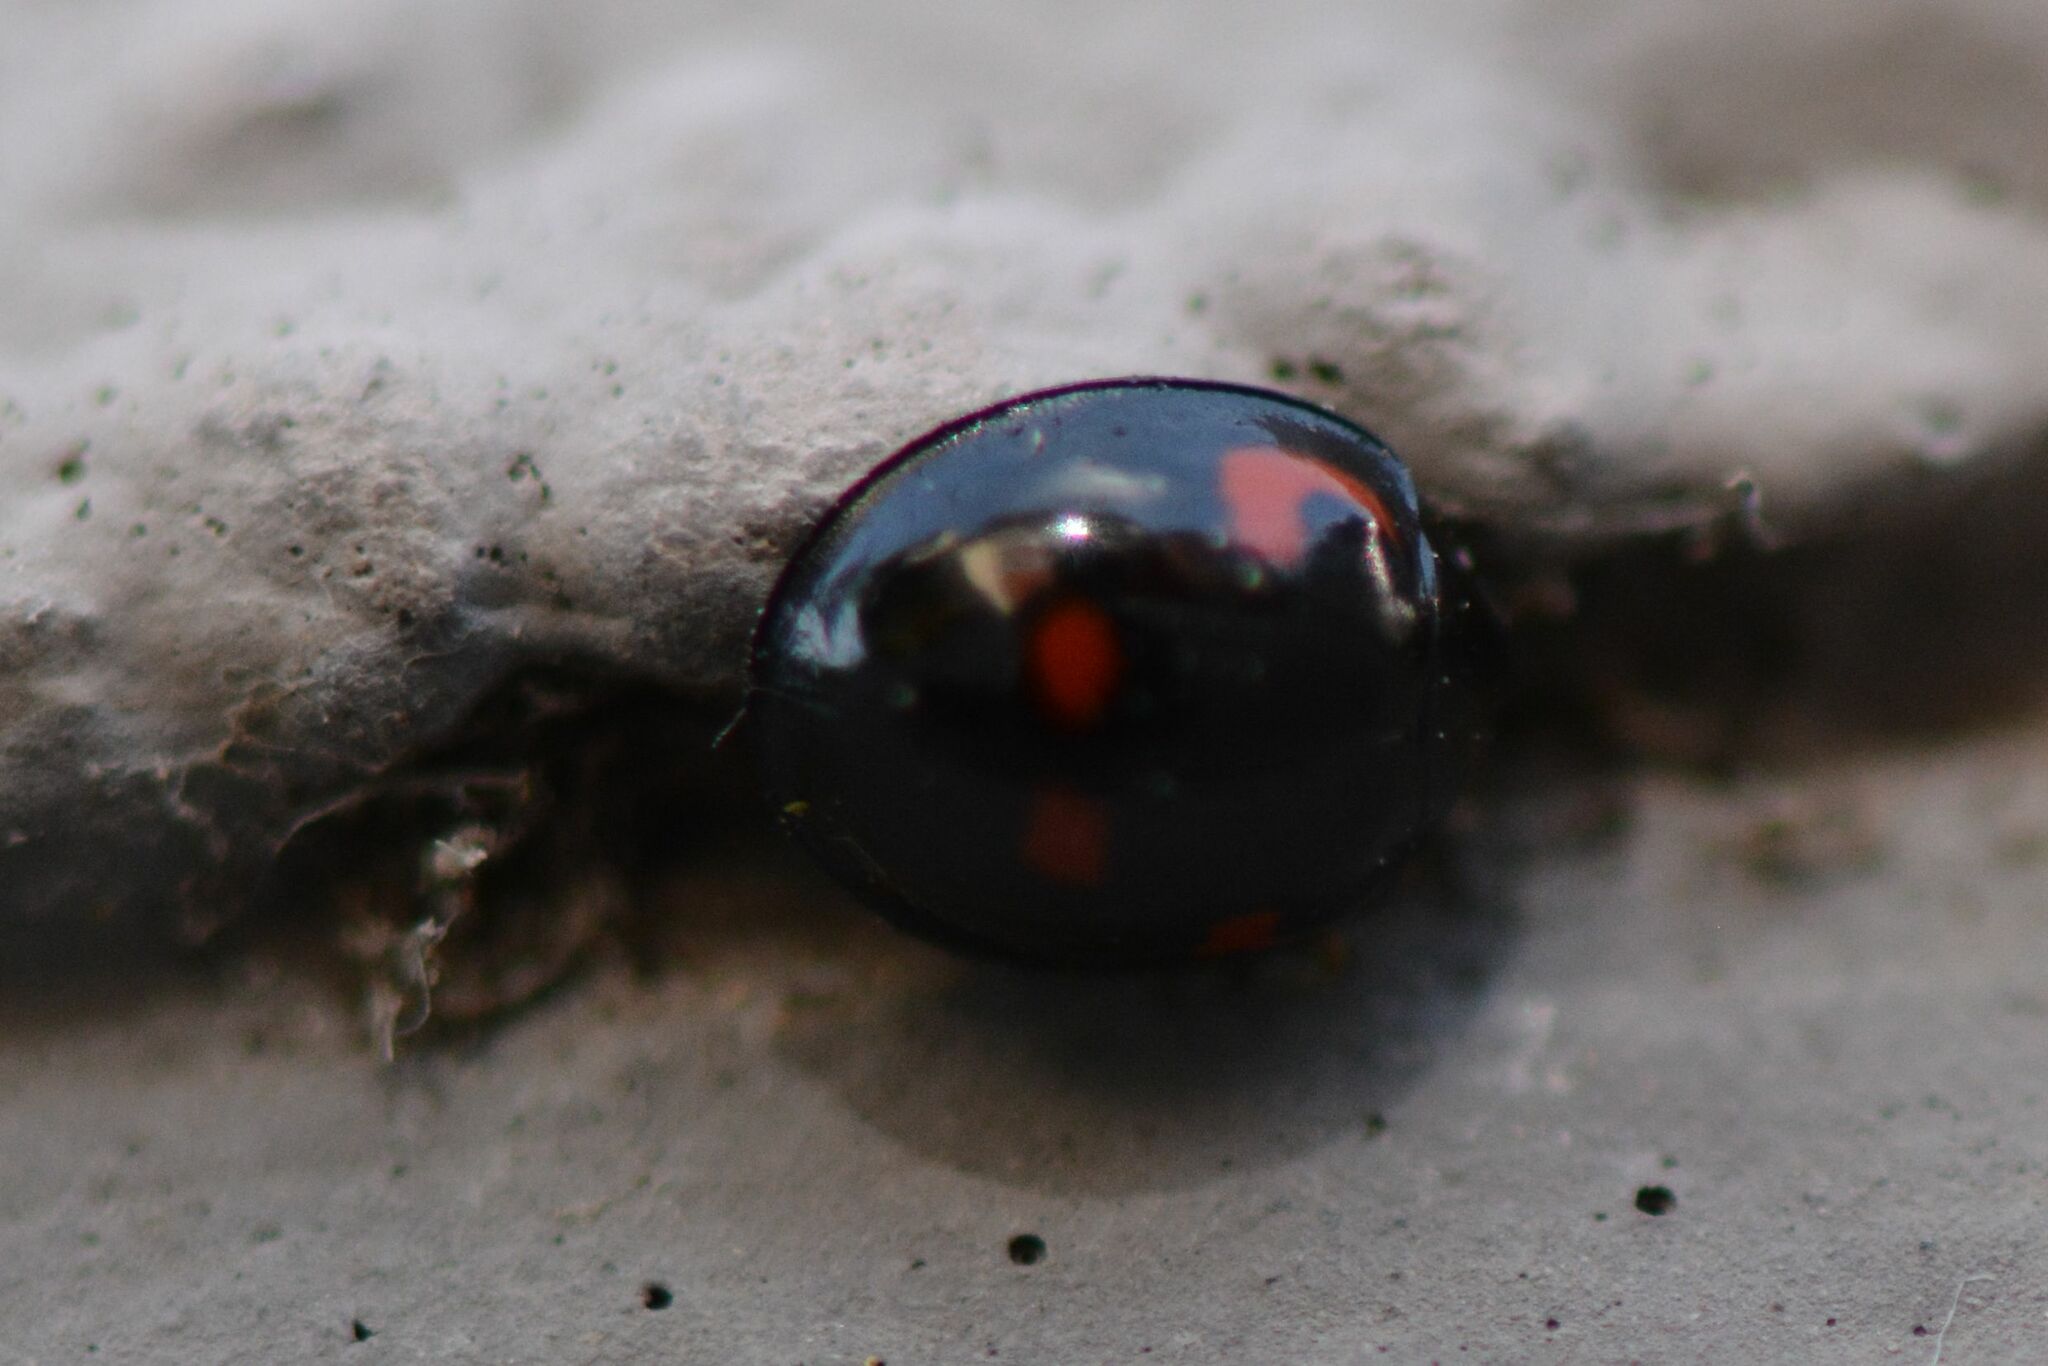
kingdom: Animalia
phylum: Arthropoda
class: Insecta
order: Coleoptera
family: Coccinellidae
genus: Brumus
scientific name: Brumus quadripustulatus
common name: Ladybird beetle
